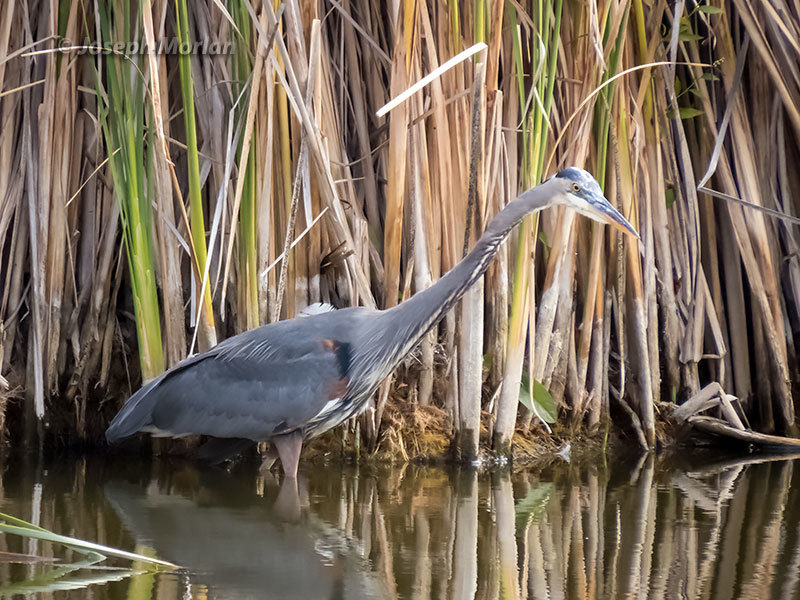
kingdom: Animalia
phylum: Chordata
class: Aves
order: Pelecaniformes
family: Ardeidae
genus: Ardea
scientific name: Ardea herodias
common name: Great blue heron
